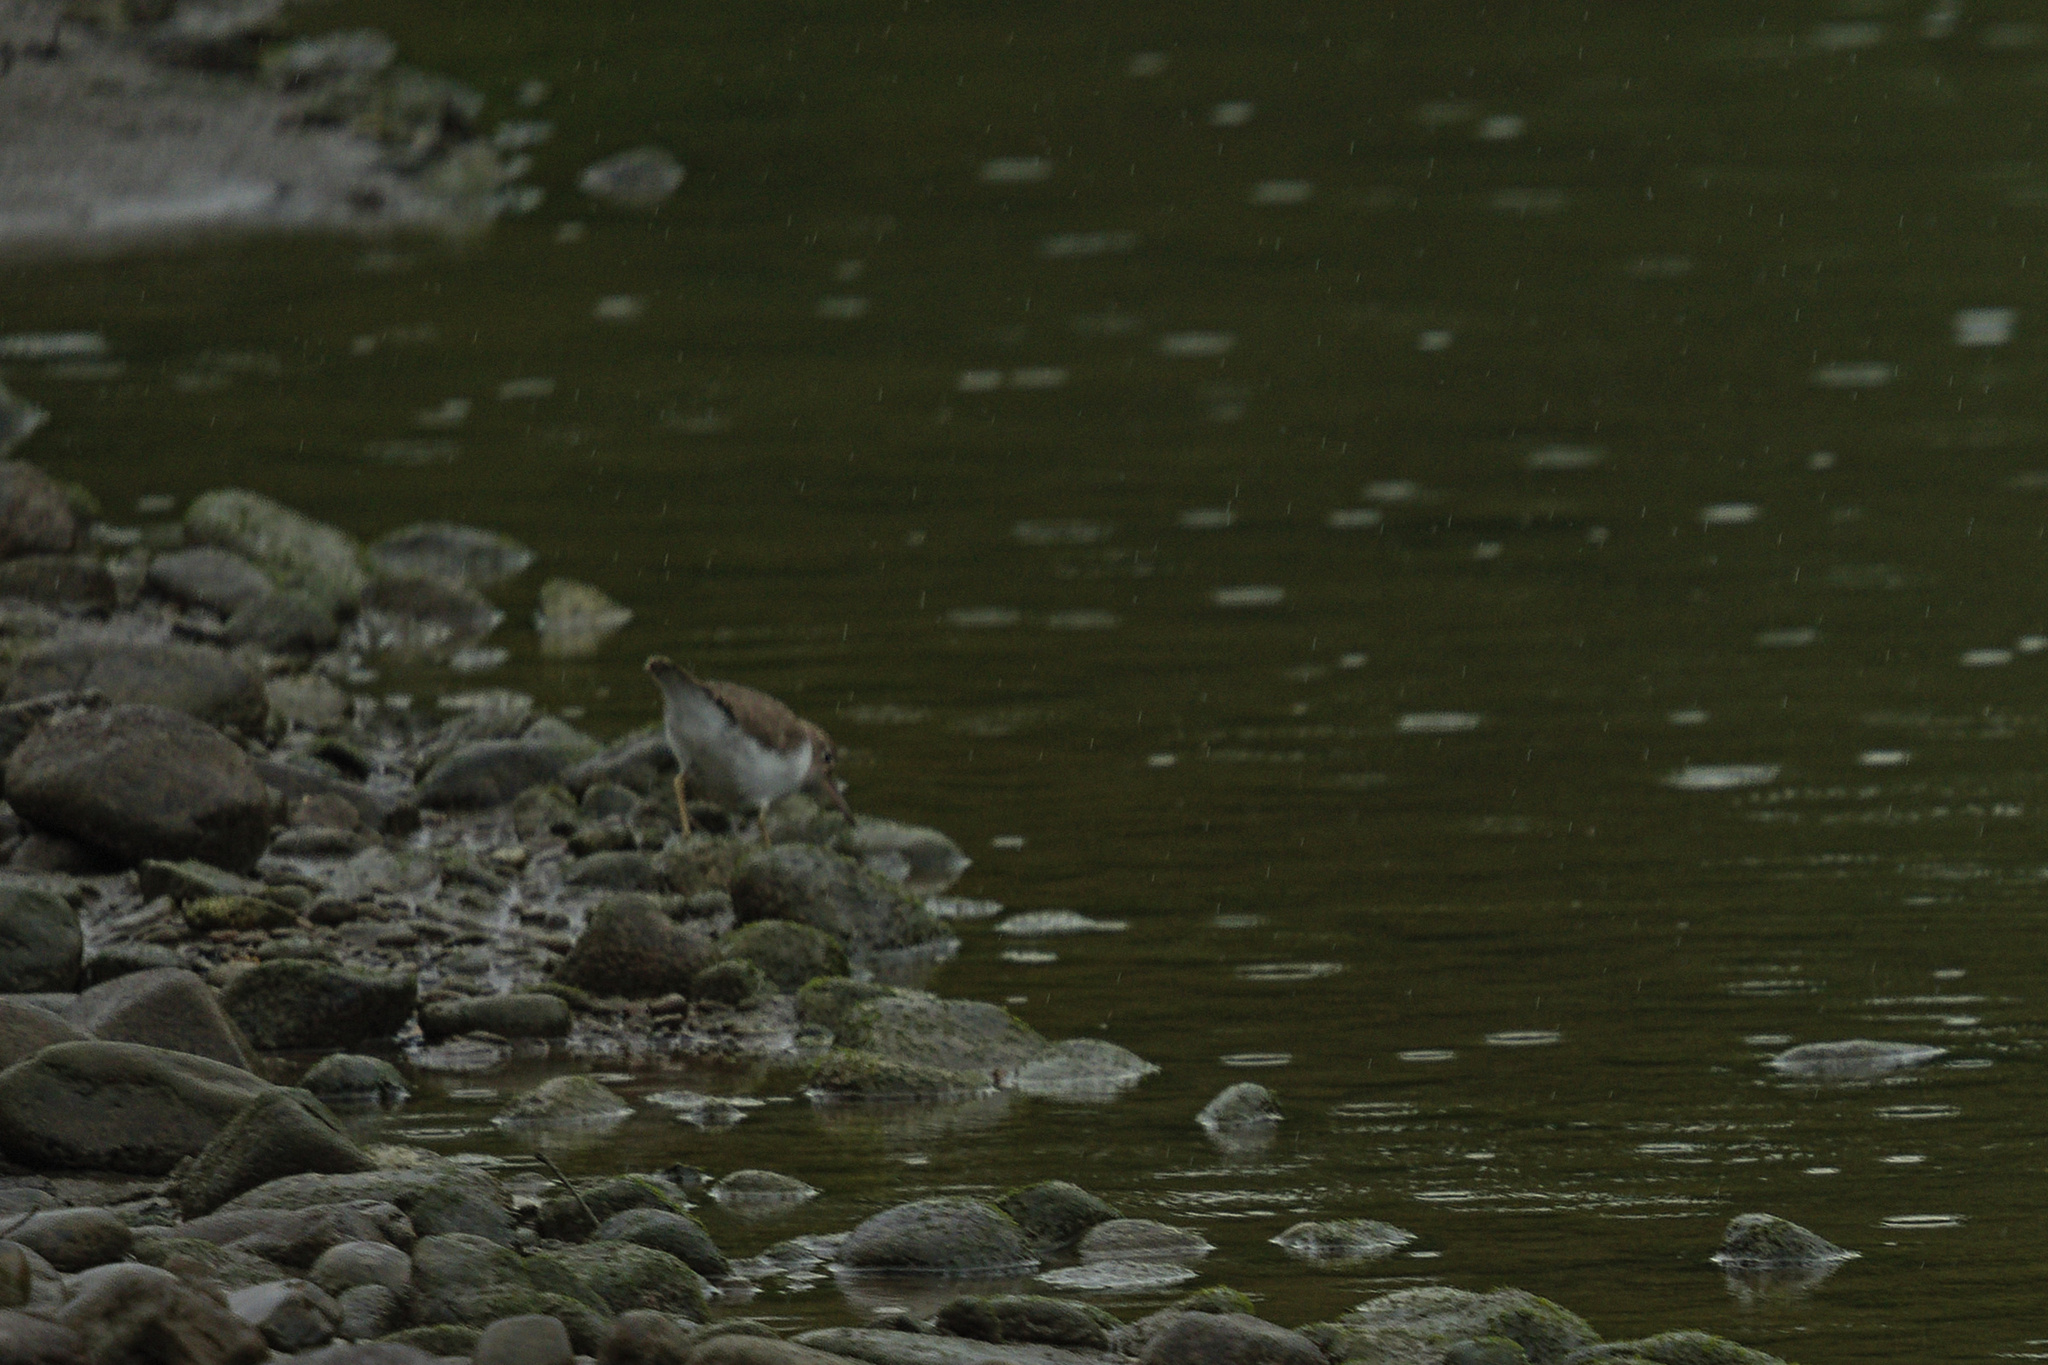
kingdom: Animalia
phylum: Chordata
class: Aves
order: Charadriiformes
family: Scolopacidae
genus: Actitis
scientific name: Actitis macularius
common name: Spotted sandpiper
